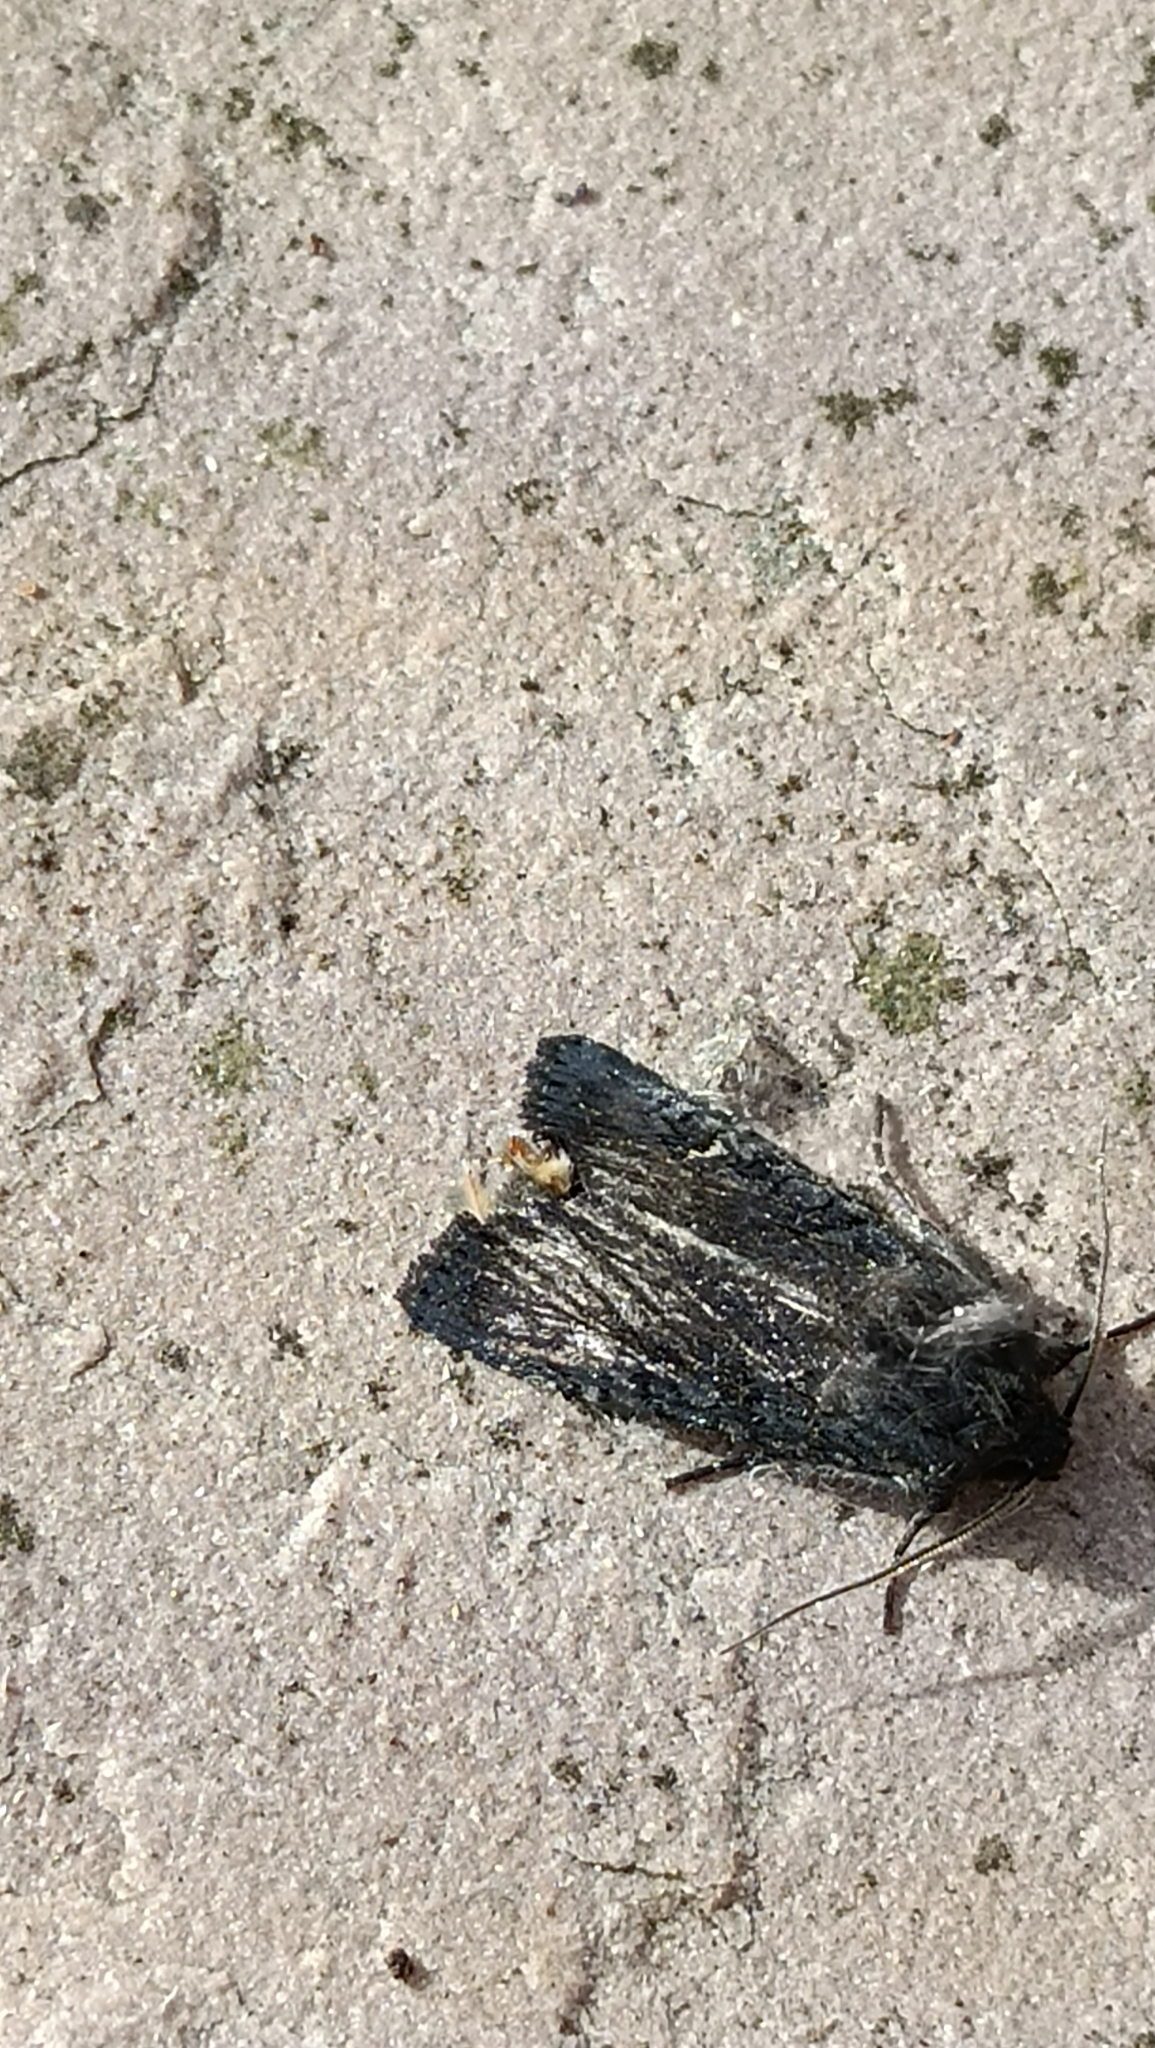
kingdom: Animalia
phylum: Arthropoda
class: Insecta
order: Lepidoptera
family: Noctuidae
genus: Aporophyla
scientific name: Aporophyla nigra
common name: Black rustic
